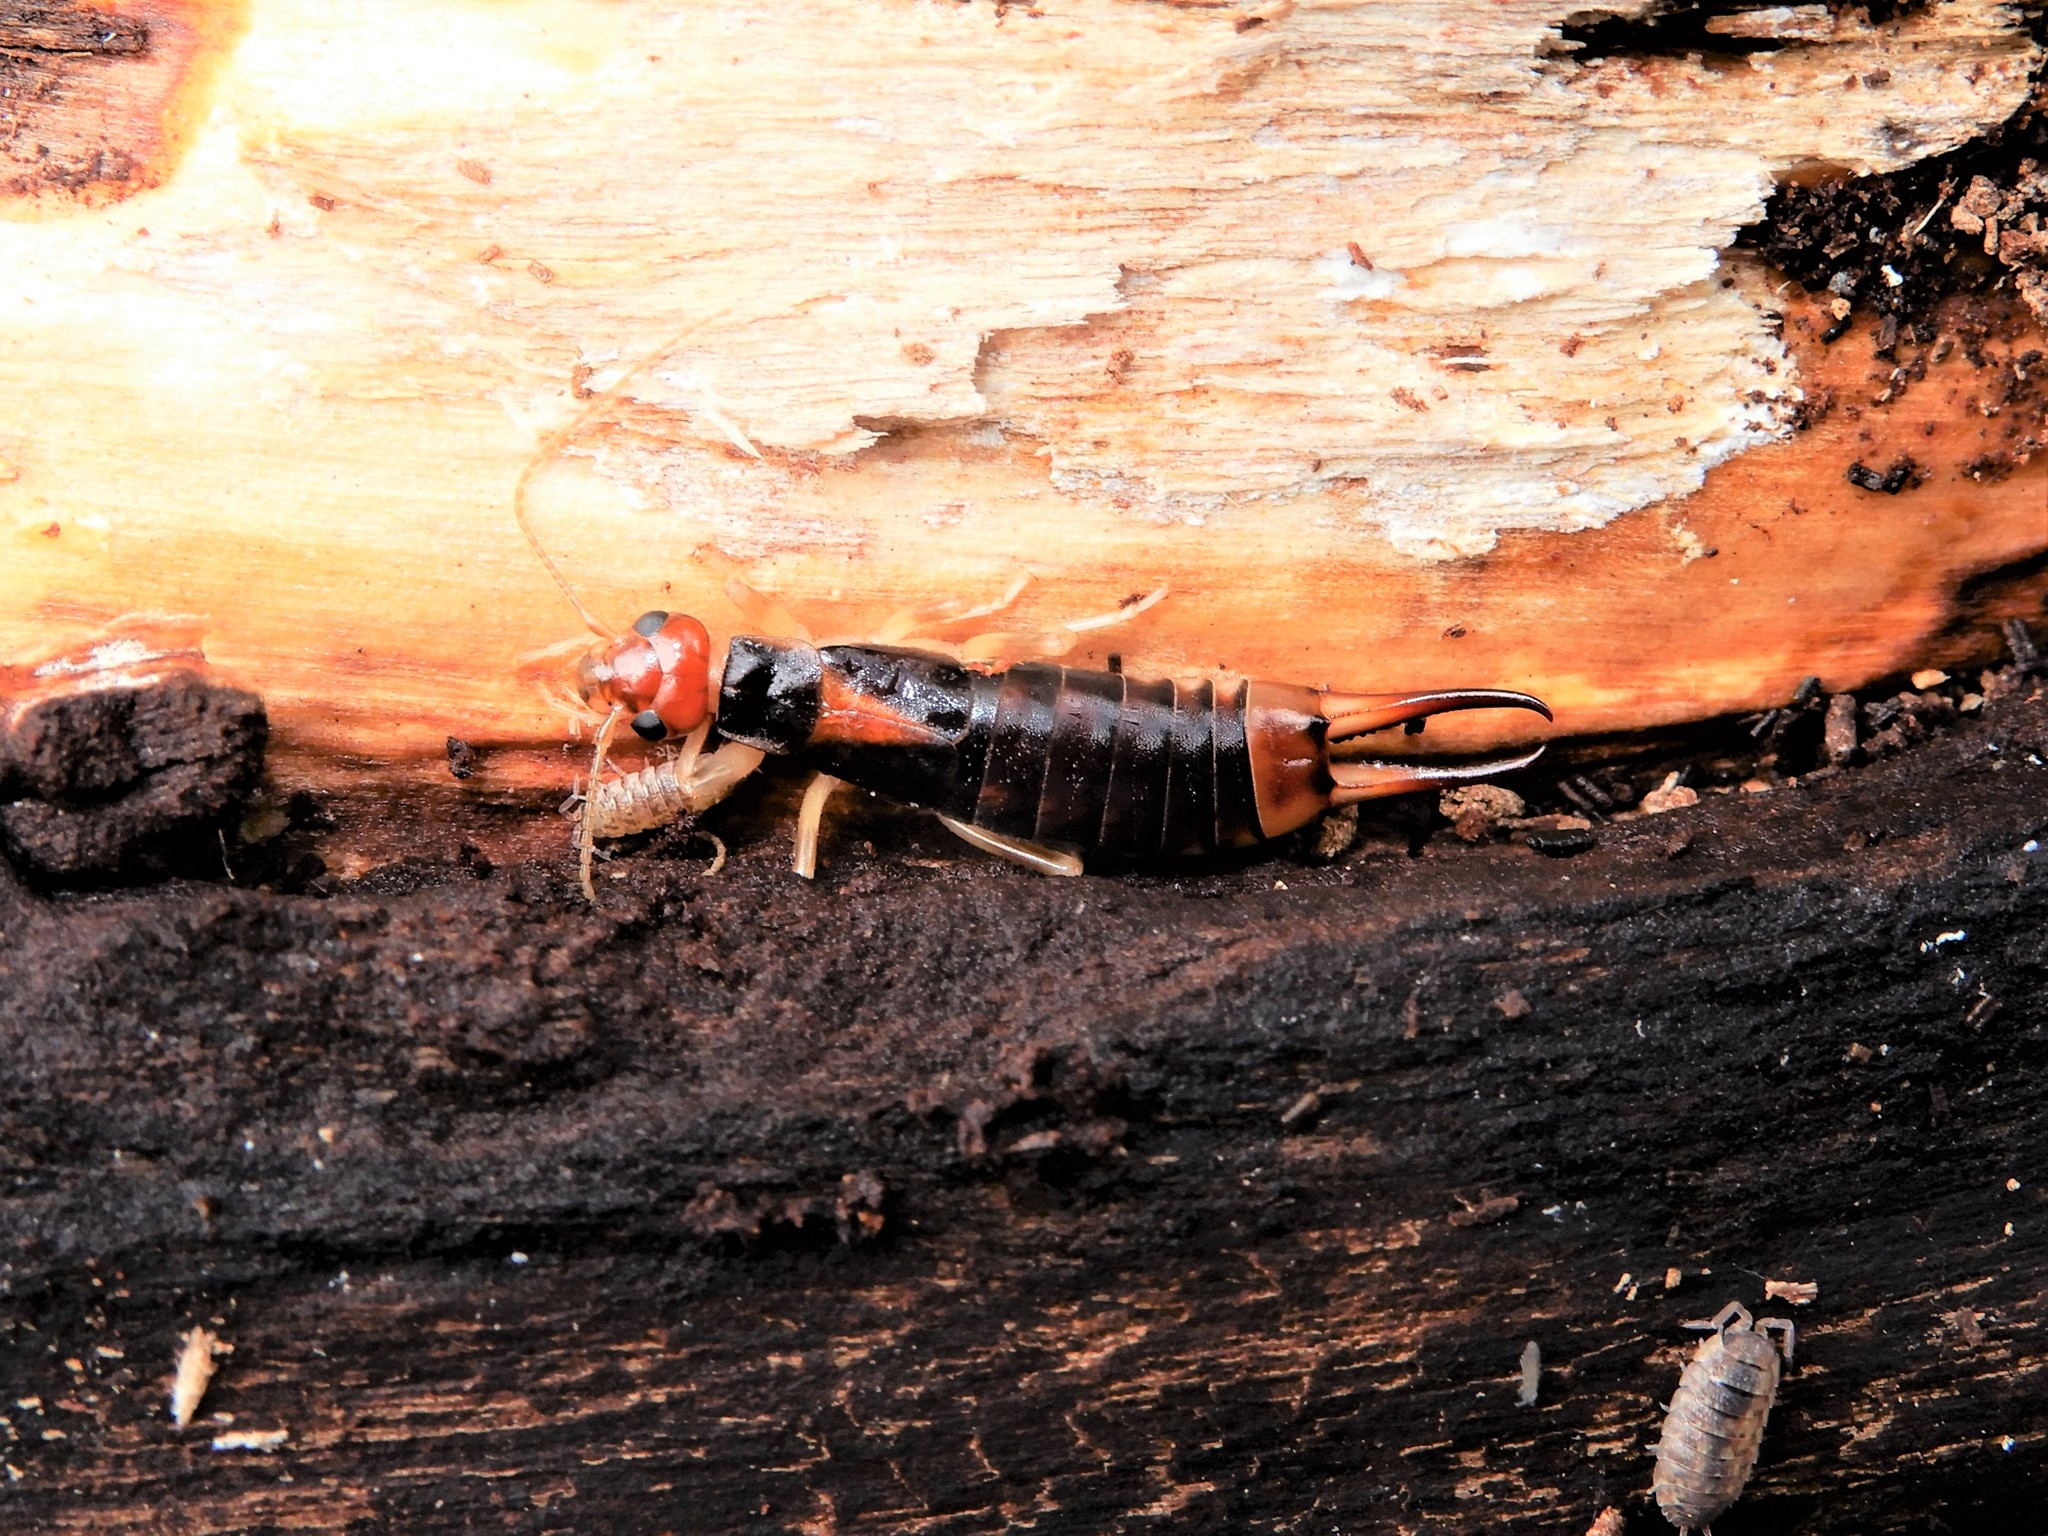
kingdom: Animalia
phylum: Arthropoda
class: Insecta
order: Dermaptera
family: Labiduridae
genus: Labidura
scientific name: Labidura riparia
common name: Striped earwig
